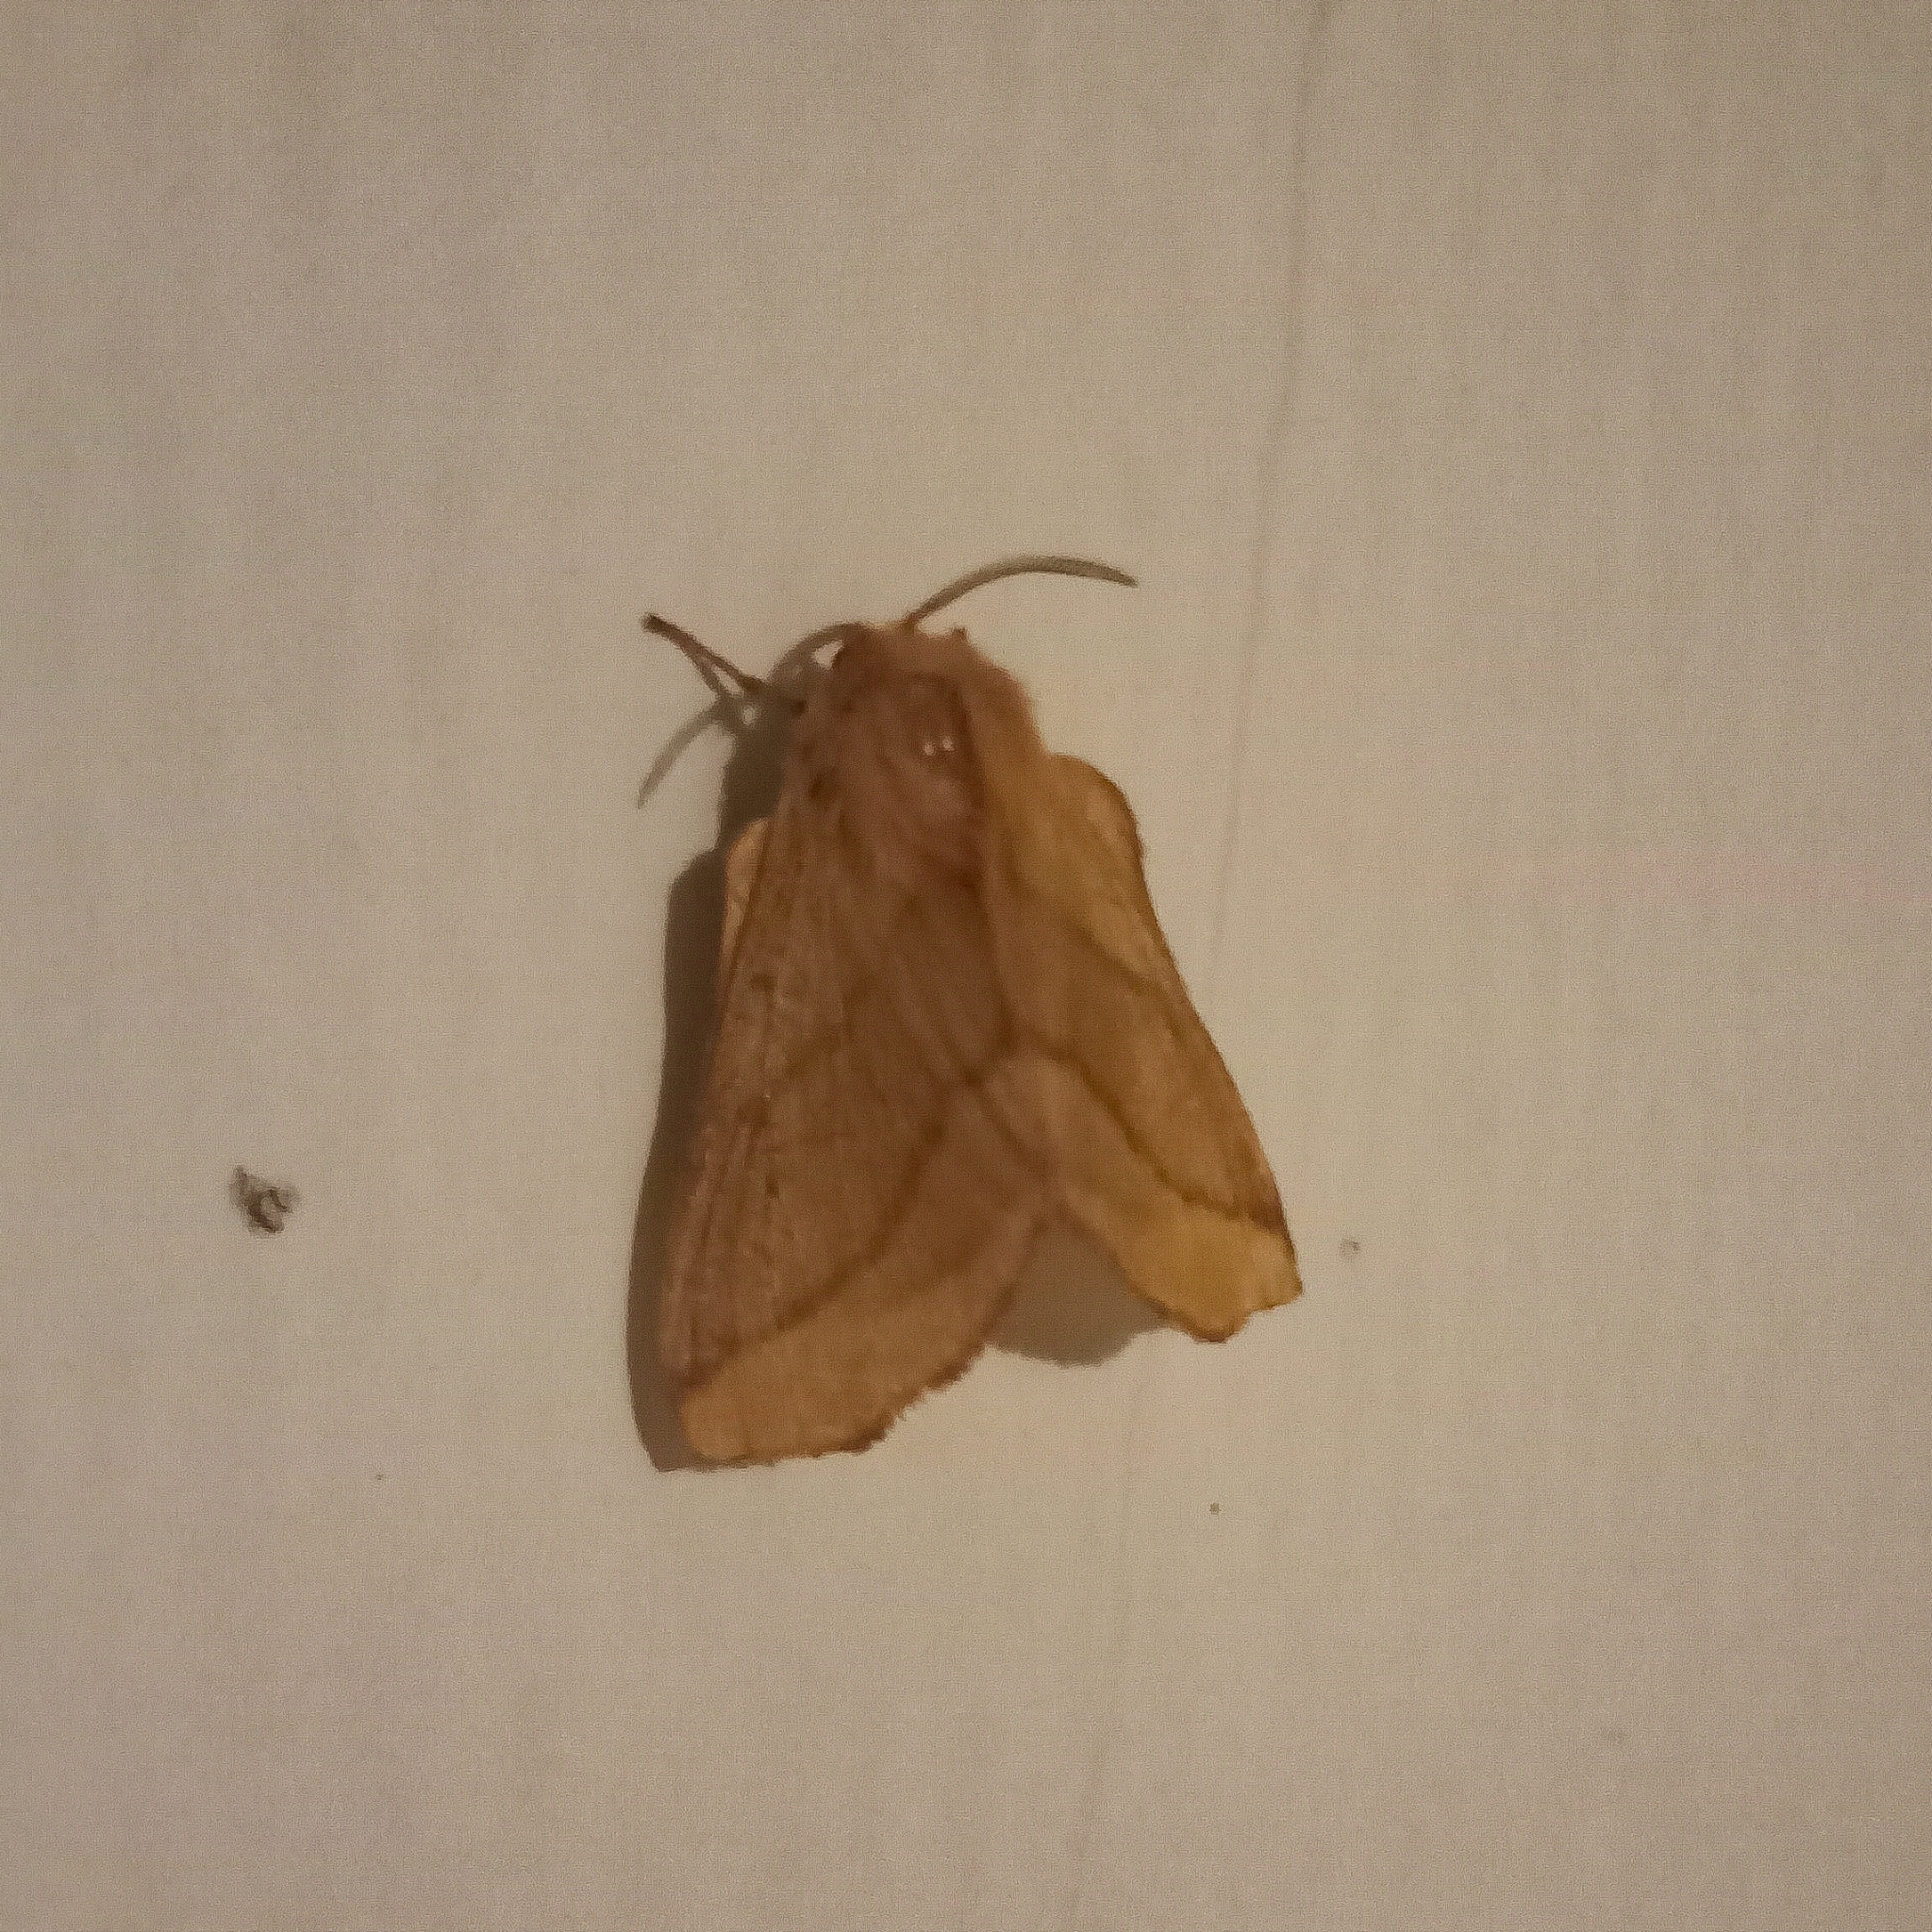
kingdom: Animalia
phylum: Arthropoda
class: Insecta
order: Lepidoptera
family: Lasiocampidae
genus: Malacosoma
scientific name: Malacosoma disstria
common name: Forest tent caterpillar
